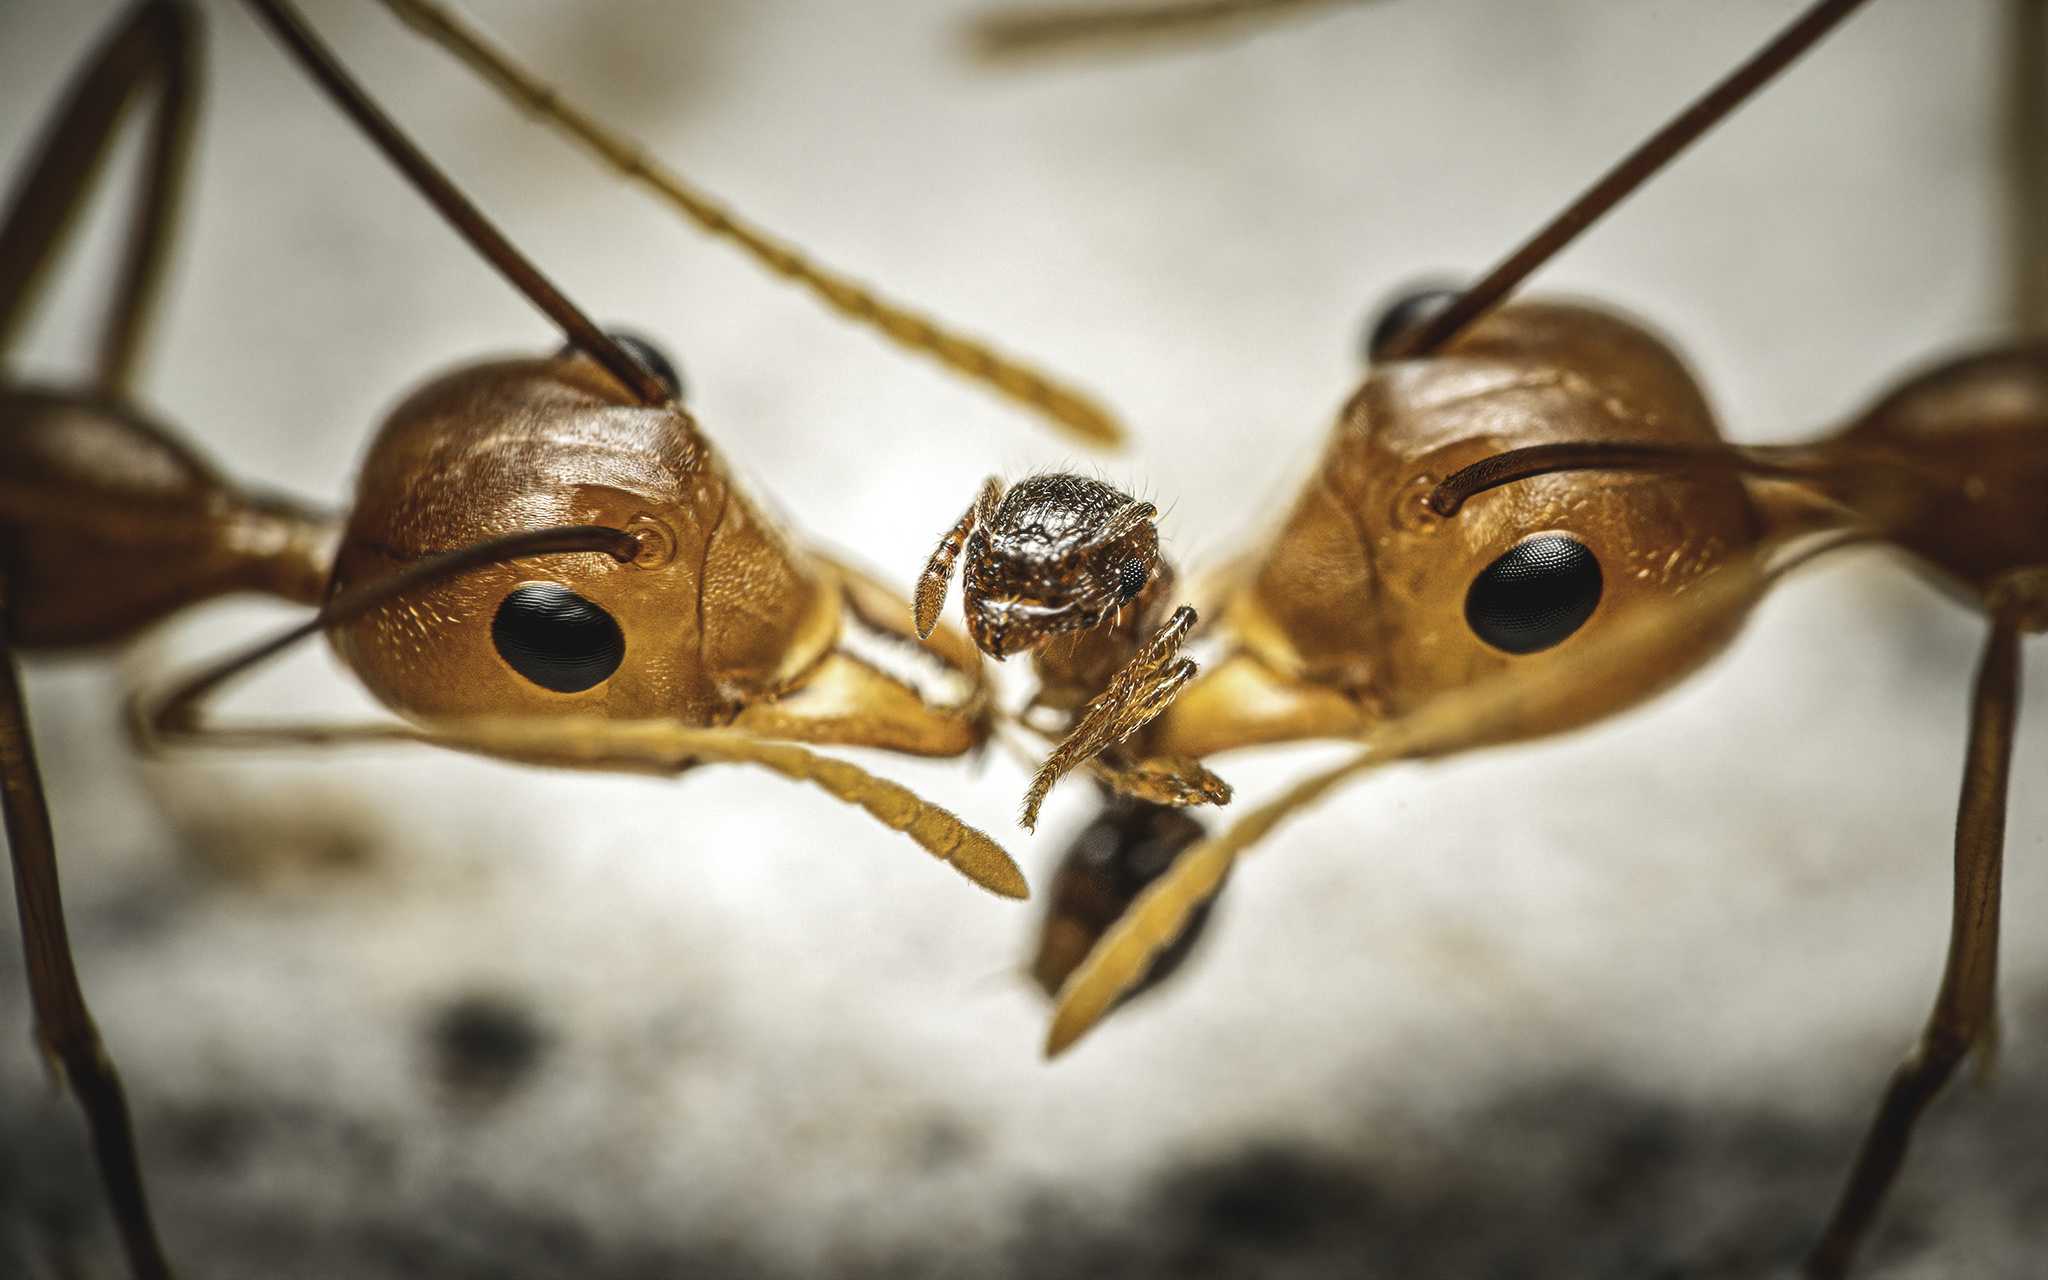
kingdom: Animalia
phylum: Arthropoda
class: Insecta
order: Hymenoptera
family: Formicidae
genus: Oecophylla
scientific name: Oecophylla smaragdina
